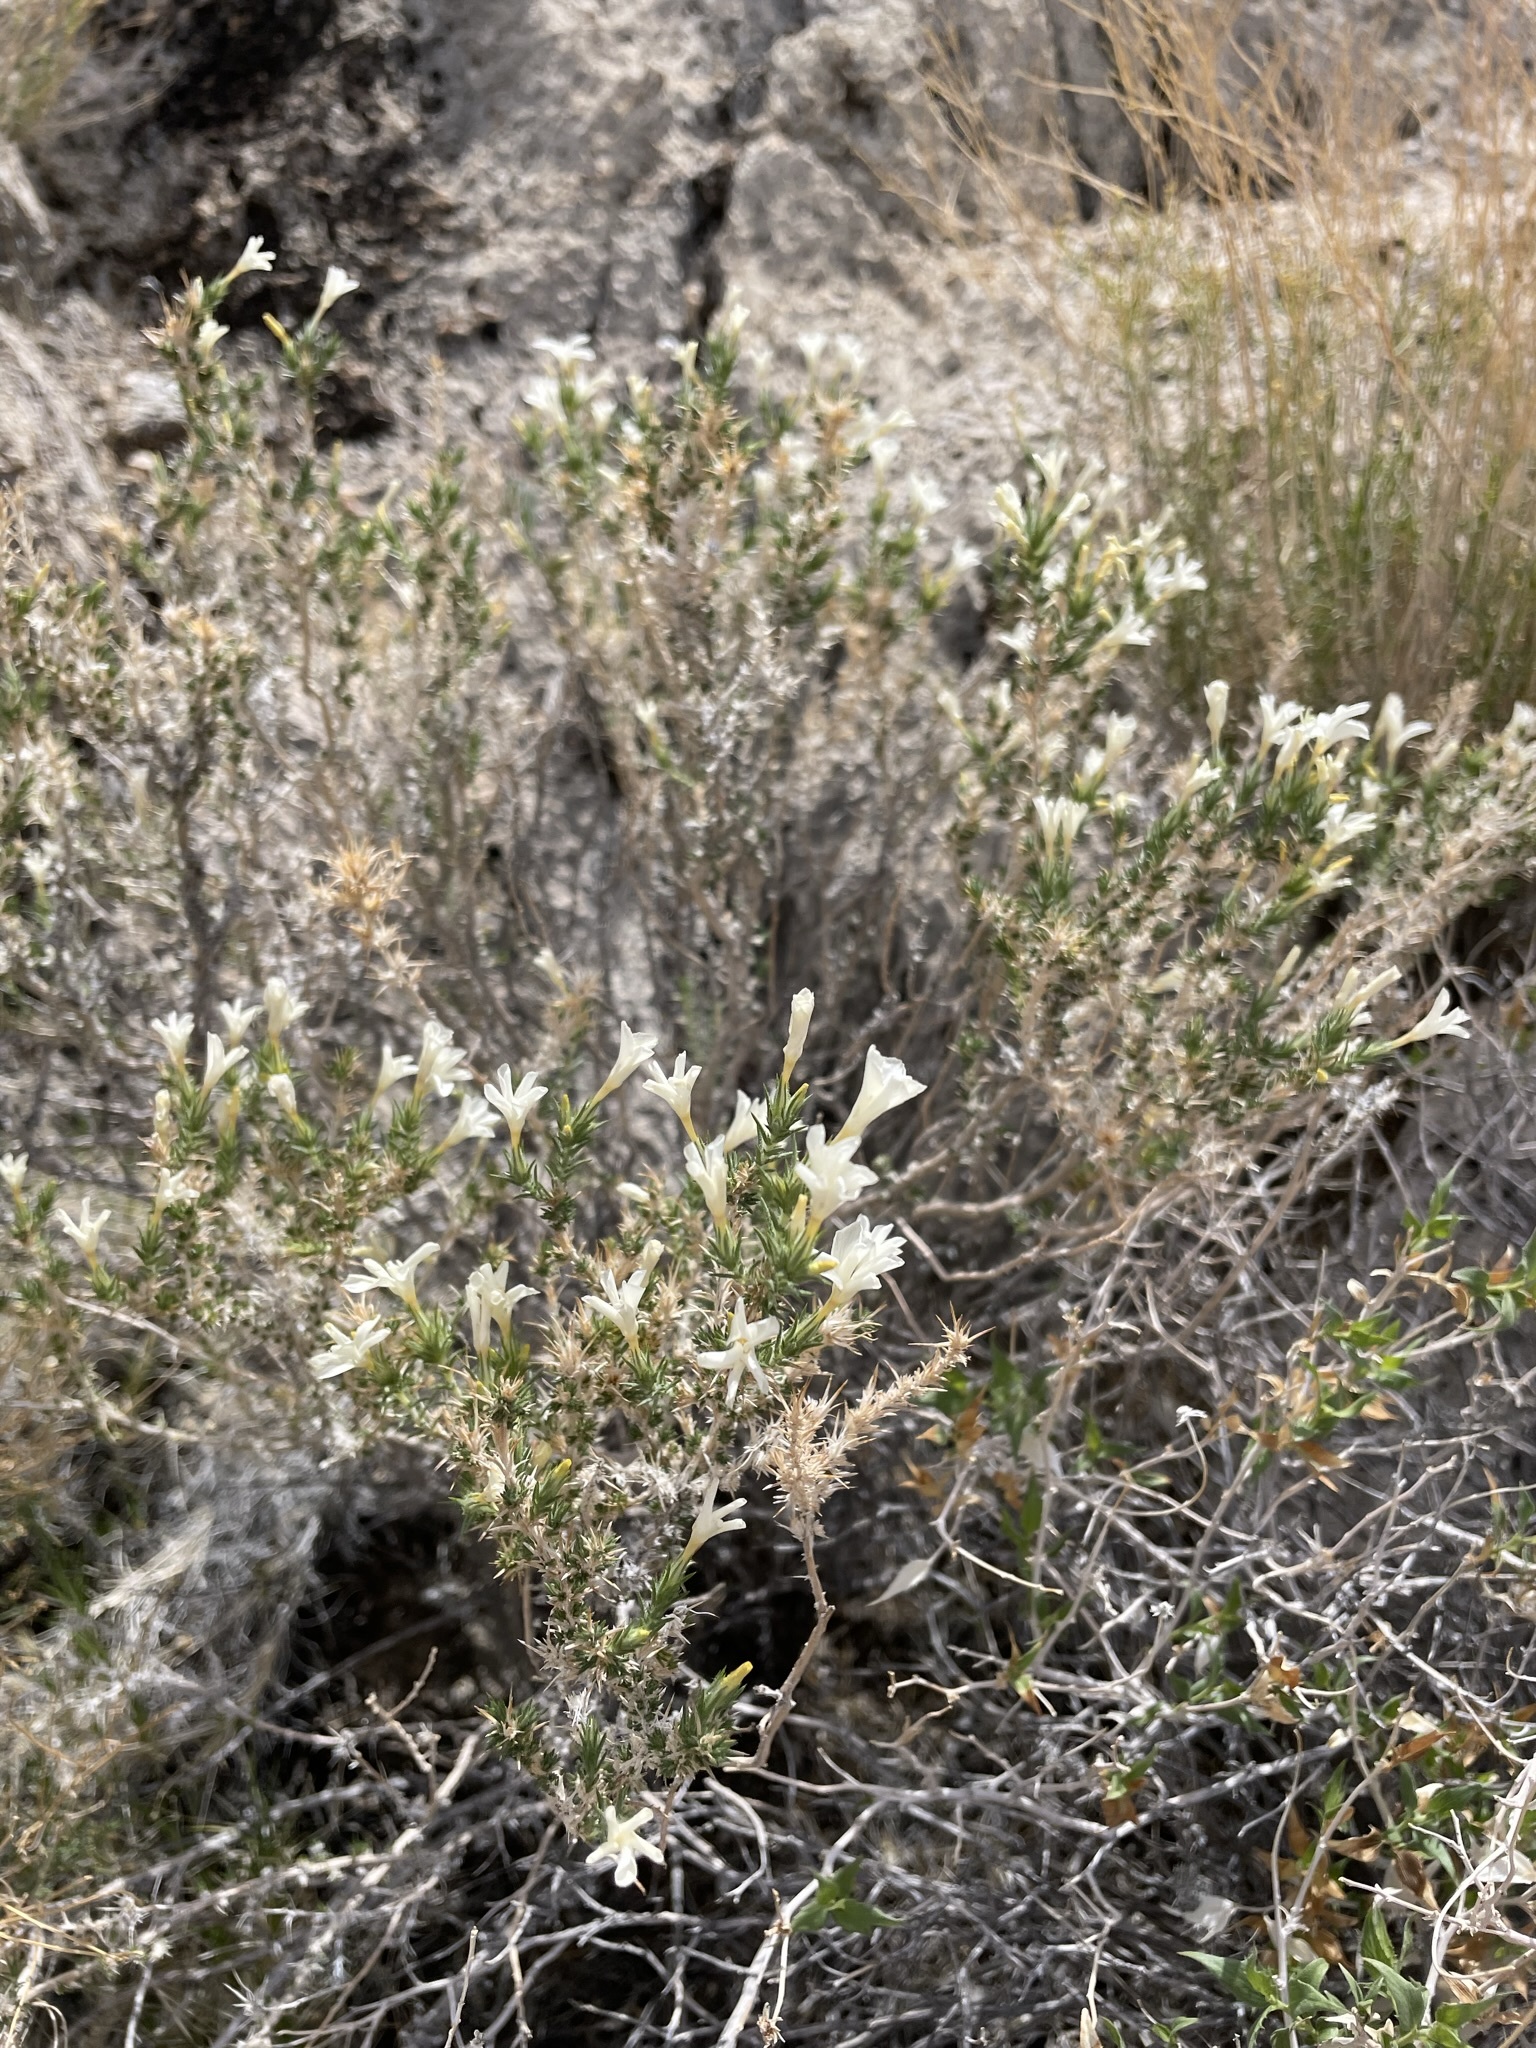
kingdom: Plantae
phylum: Tracheophyta
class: Magnoliopsida
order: Ericales
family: Polemoniaceae
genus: Linanthus
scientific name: Linanthus pungens
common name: Granite prickly phlox
